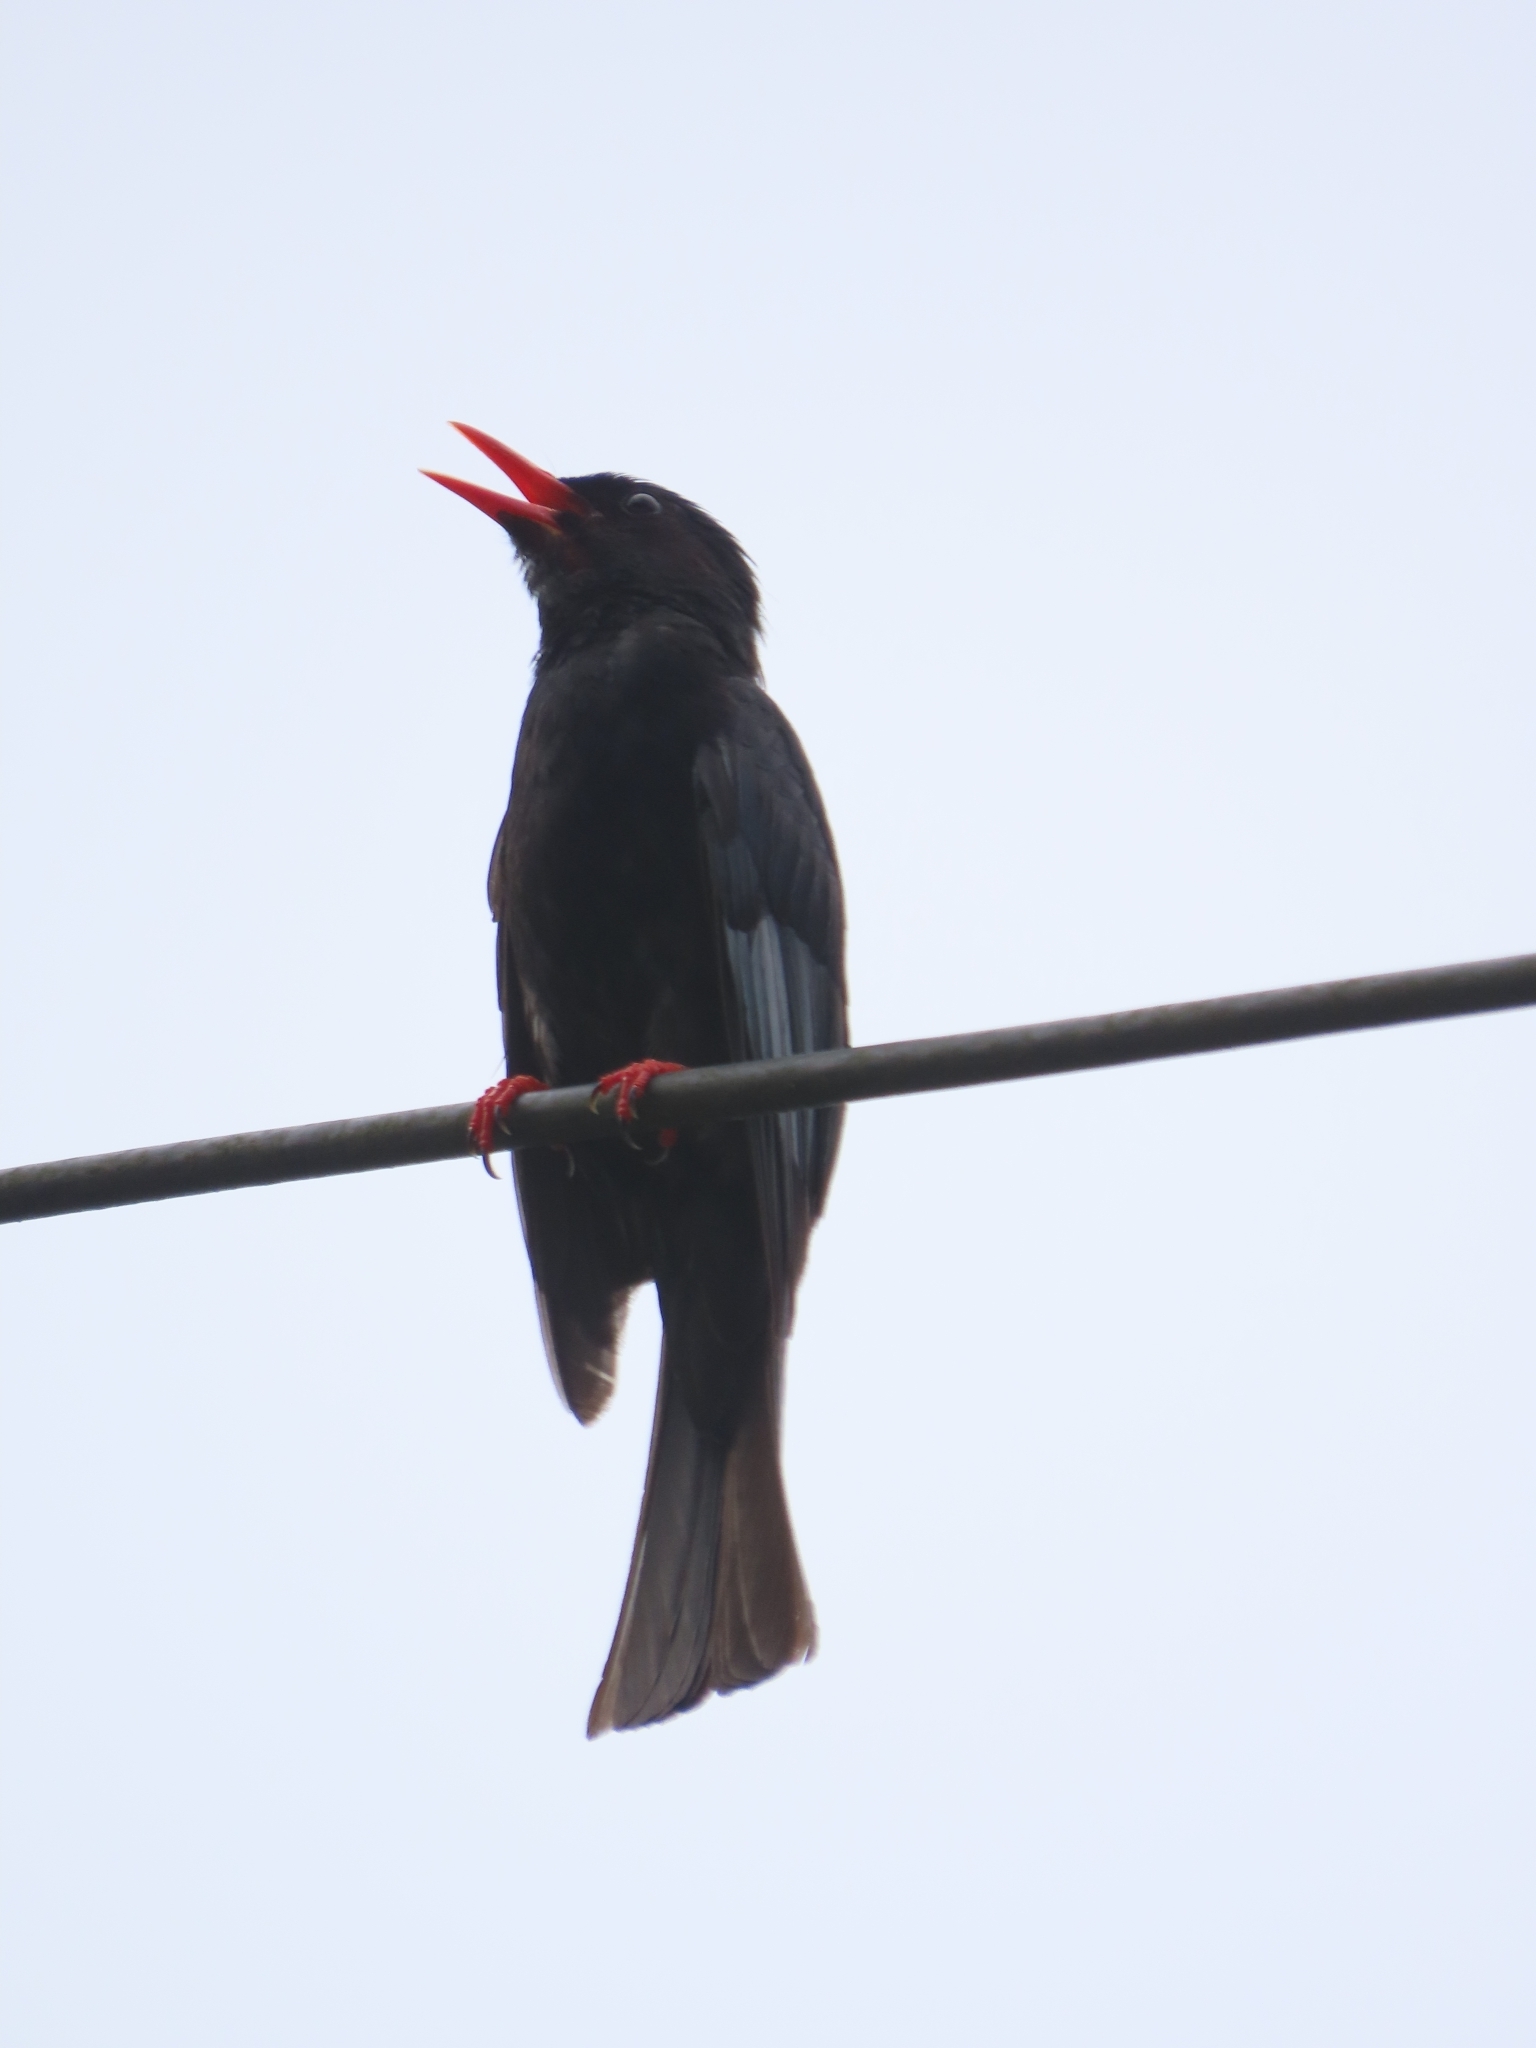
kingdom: Animalia
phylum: Chordata
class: Aves
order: Passeriformes
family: Pycnonotidae
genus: Hypsipetes
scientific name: Hypsipetes leucocephalus
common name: Black bulbul
